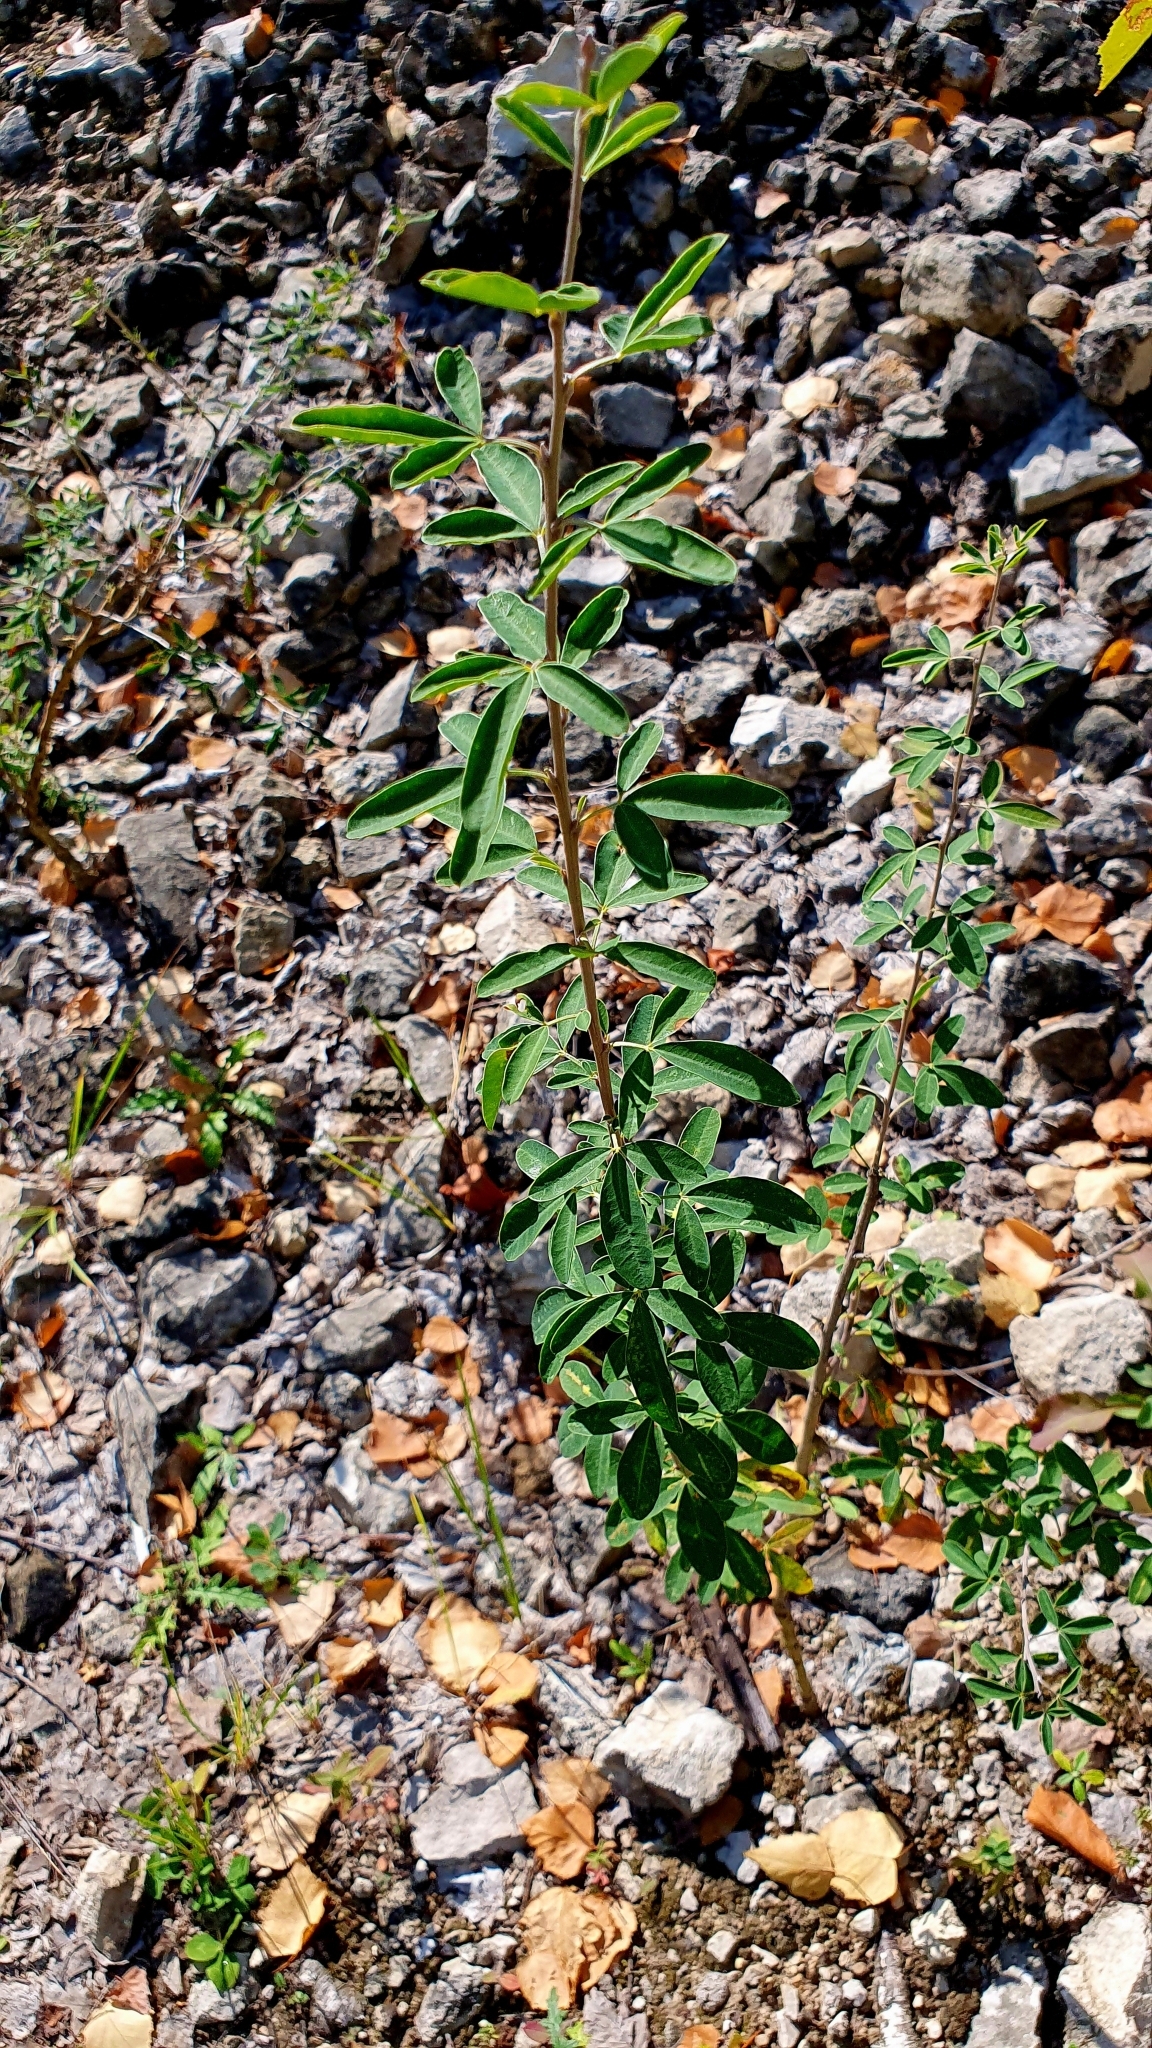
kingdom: Plantae
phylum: Tracheophyta
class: Magnoliopsida
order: Fabales
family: Fabaceae
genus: Chamaecytisus
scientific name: Chamaecytisus ruthenicus
